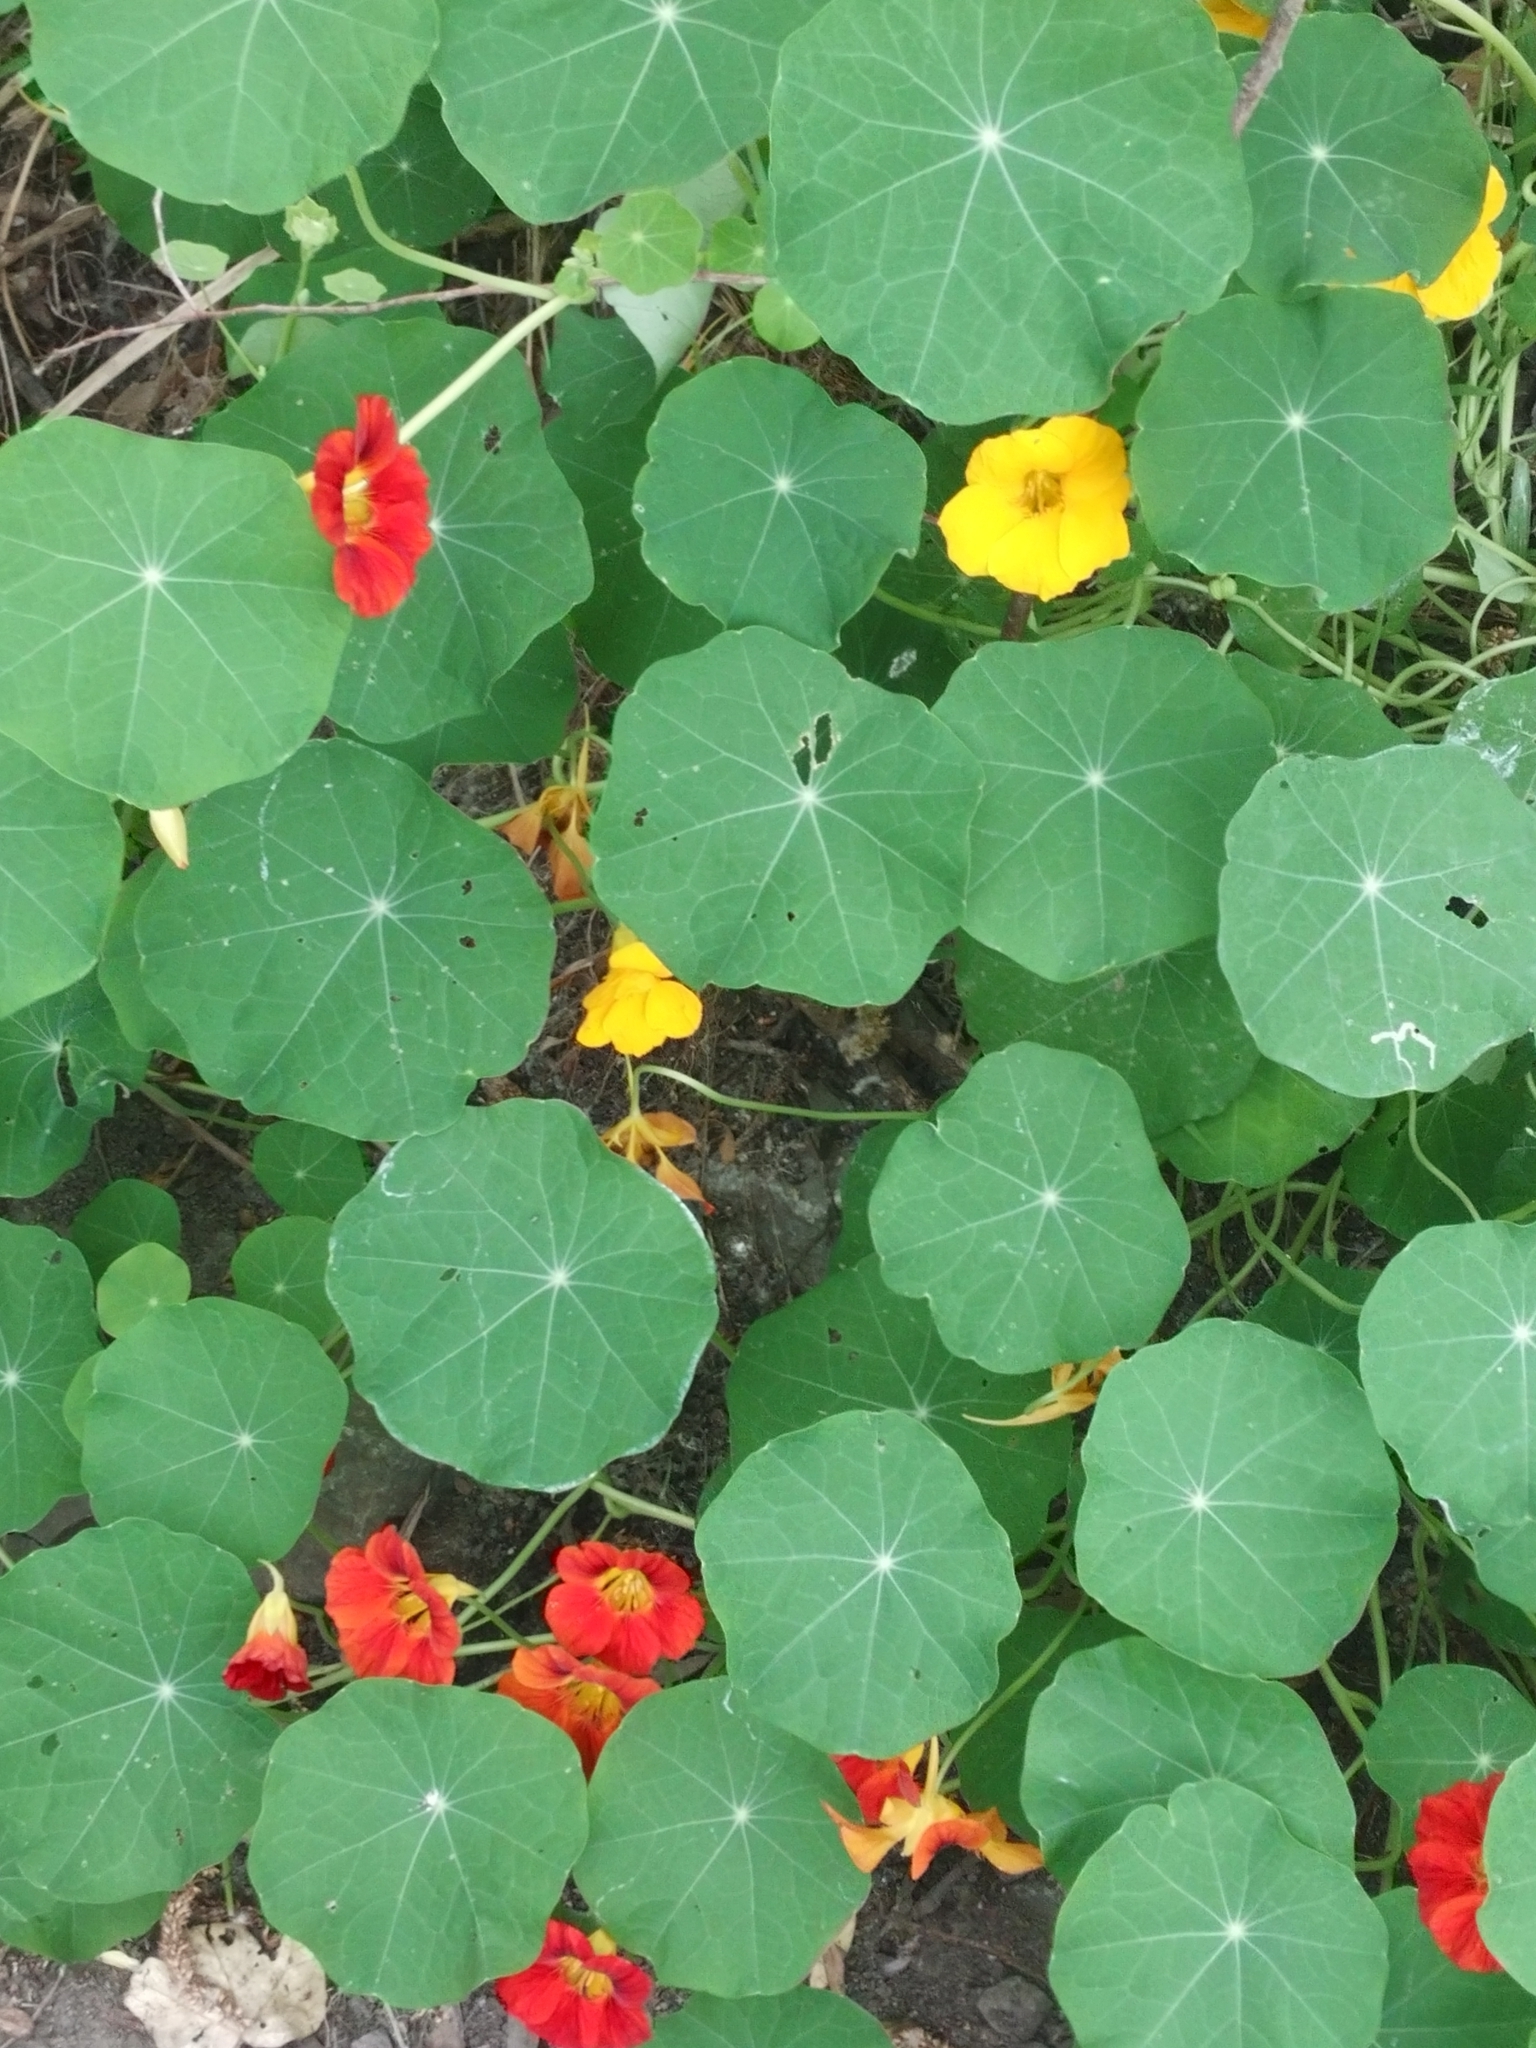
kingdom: Plantae
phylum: Tracheophyta
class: Magnoliopsida
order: Brassicales
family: Tropaeolaceae
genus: Tropaeolum
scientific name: Tropaeolum majus
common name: Nasturtium
